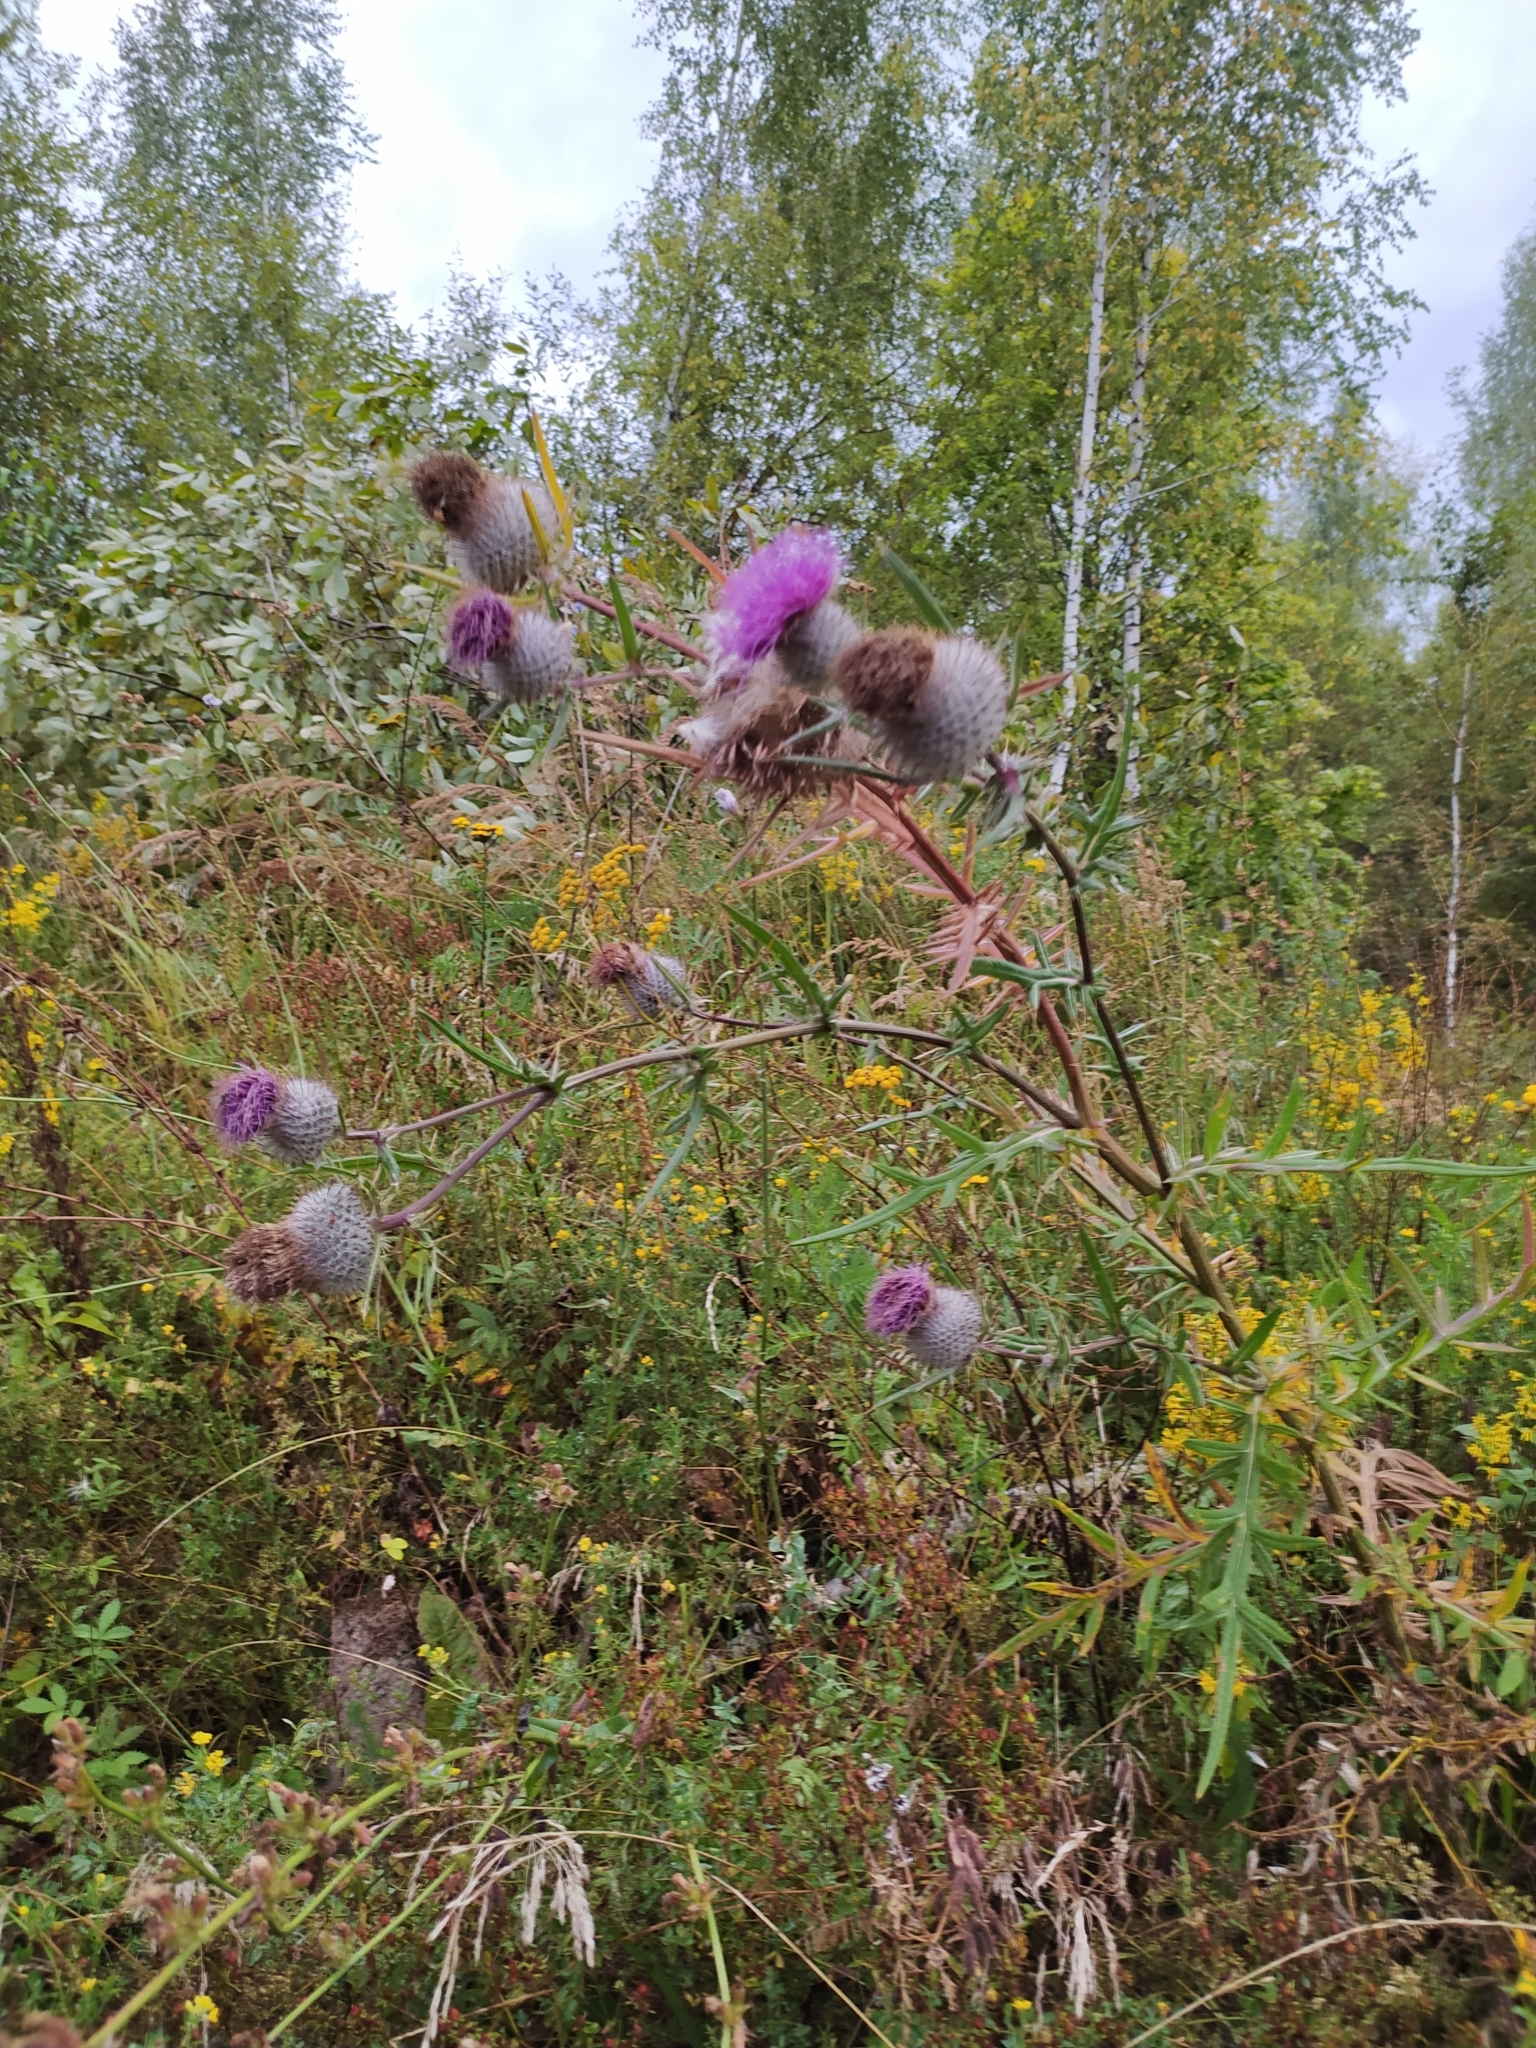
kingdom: Plantae
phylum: Tracheophyta
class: Magnoliopsida
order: Asterales
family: Asteraceae
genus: Lophiolepis
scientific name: Lophiolepis decussata
